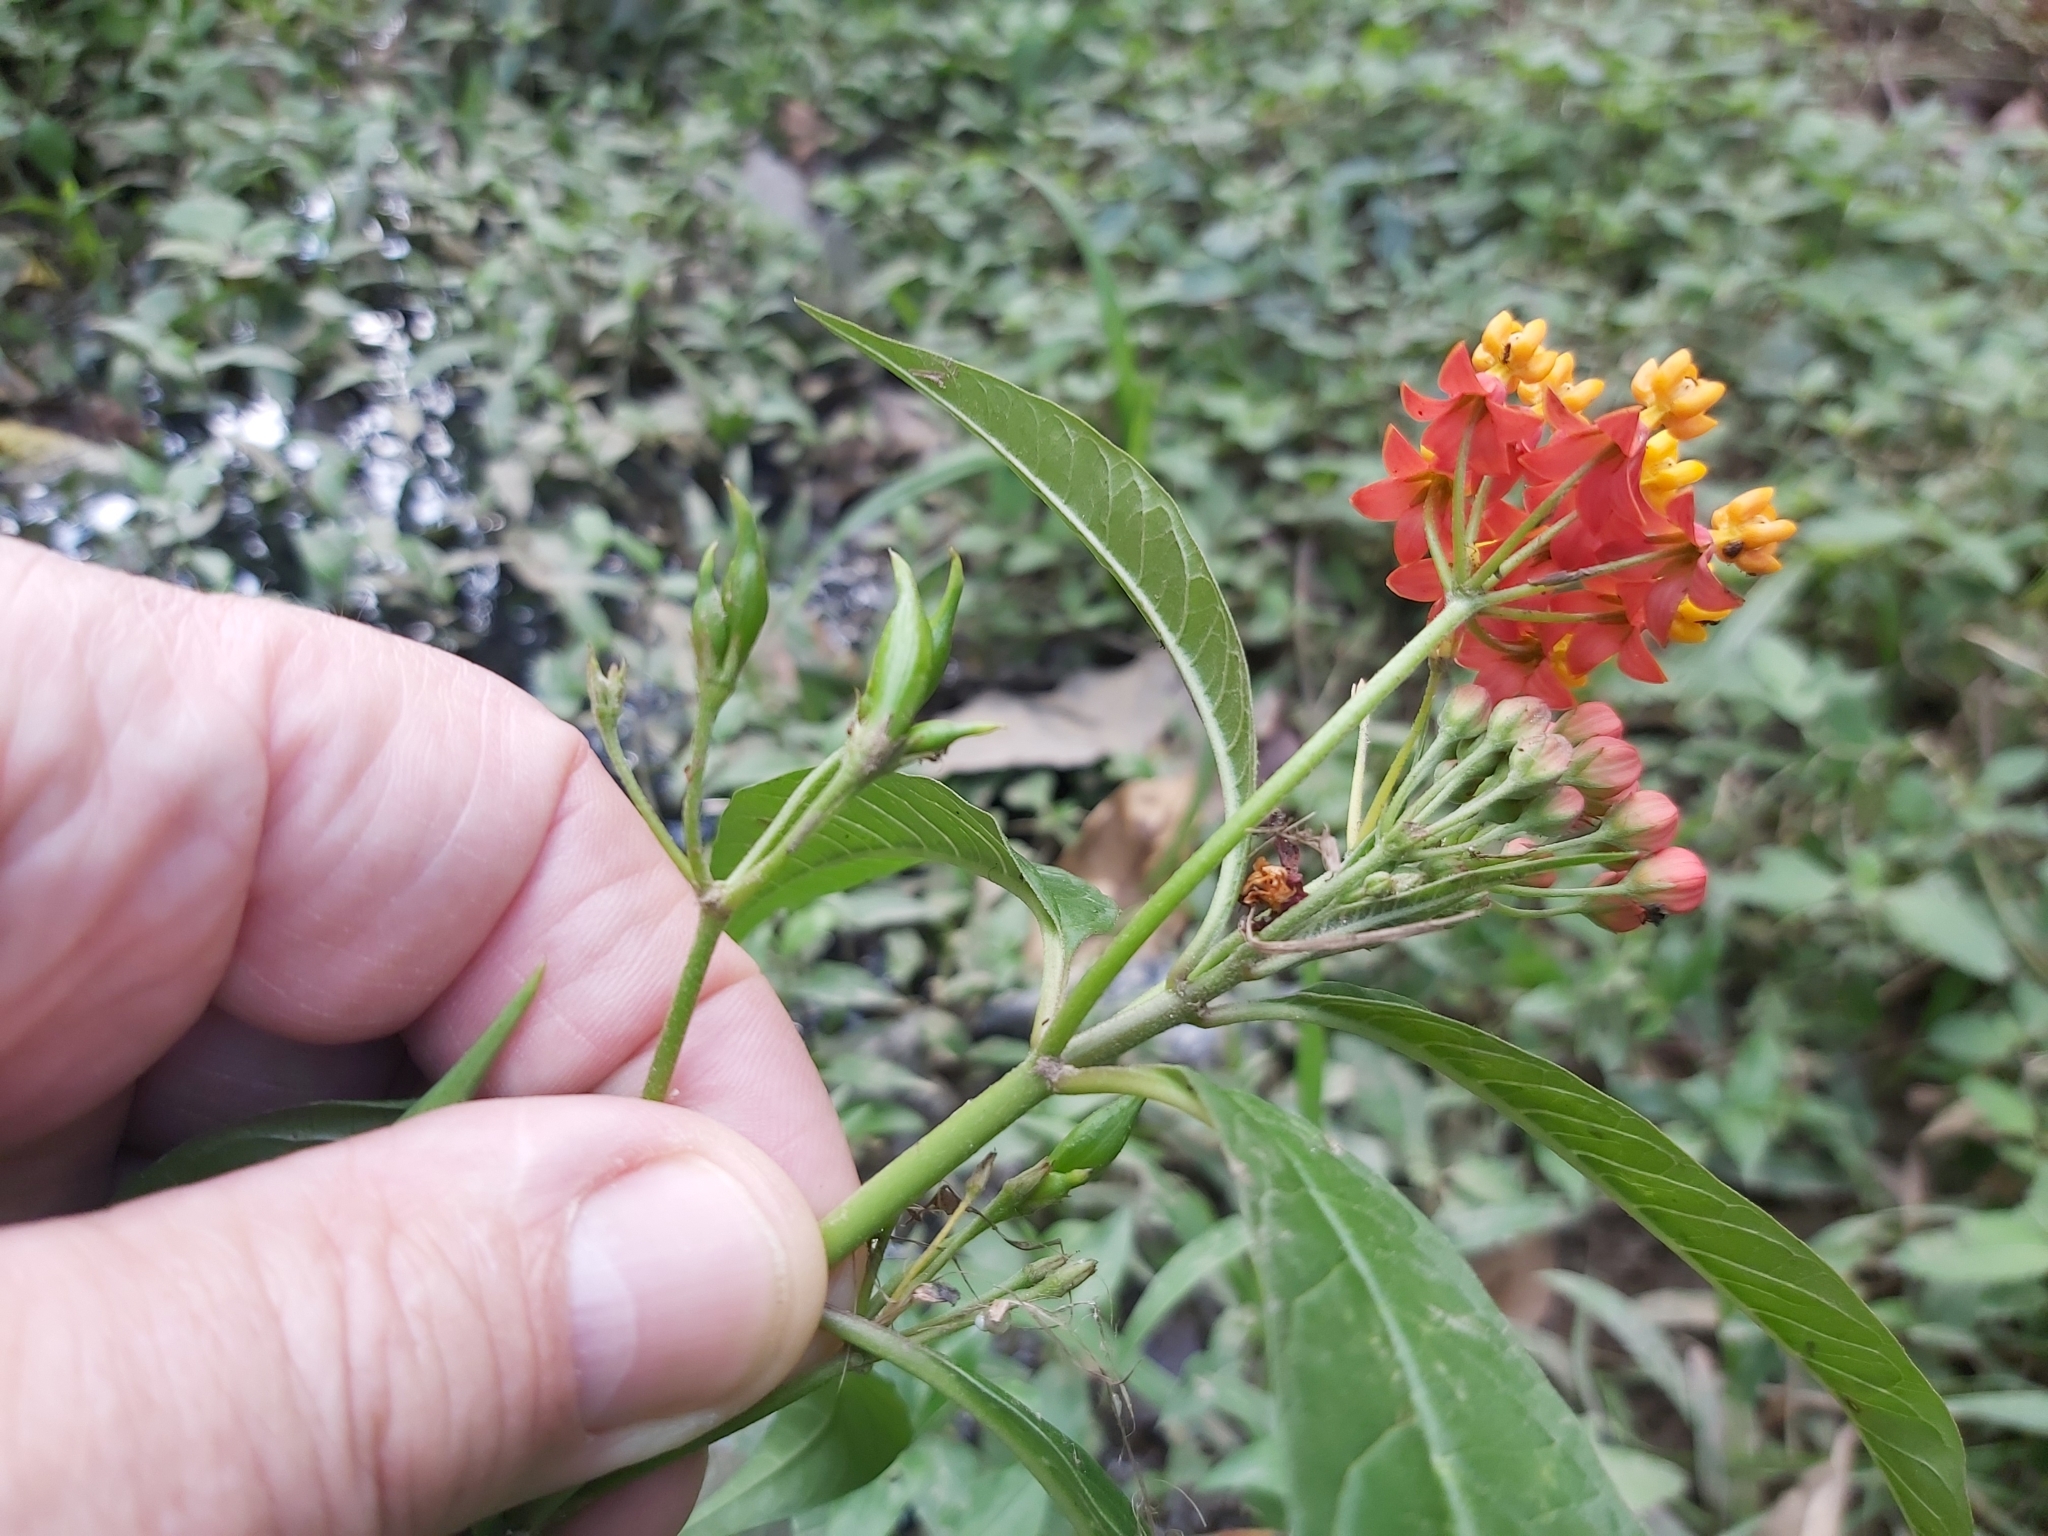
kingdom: Plantae
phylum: Tracheophyta
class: Magnoliopsida
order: Gentianales
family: Apocynaceae
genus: Asclepias
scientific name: Asclepias curassavica
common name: Bloodflower
